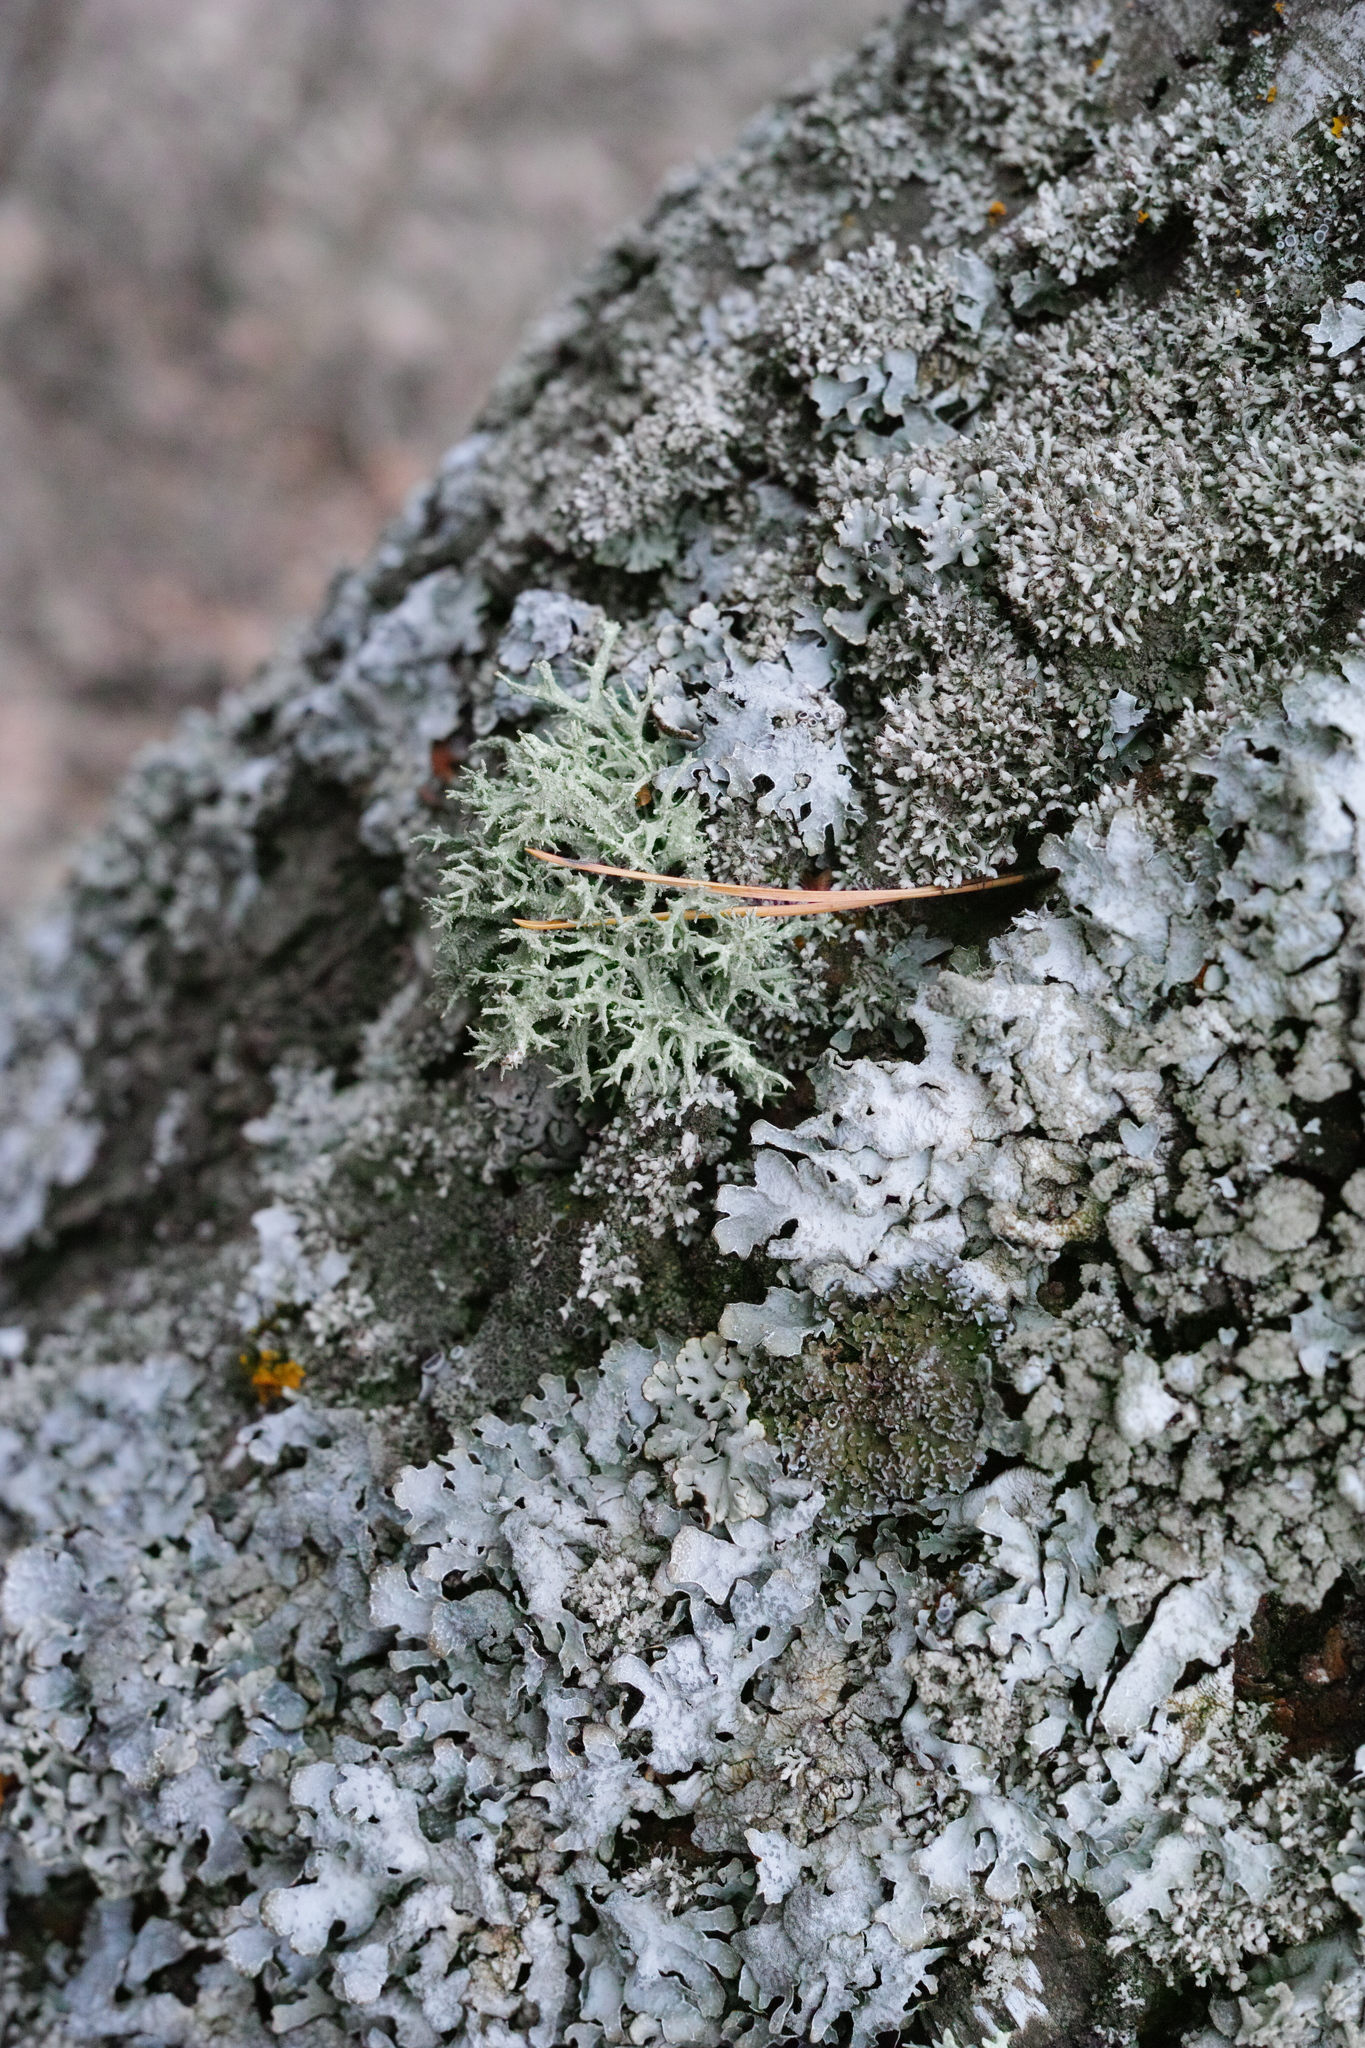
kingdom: Fungi
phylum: Ascomycota
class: Lecanoromycetes
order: Lecanorales
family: Parmeliaceae
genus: Parmelia
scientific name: Parmelia sulcata
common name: Netted shield lichen
